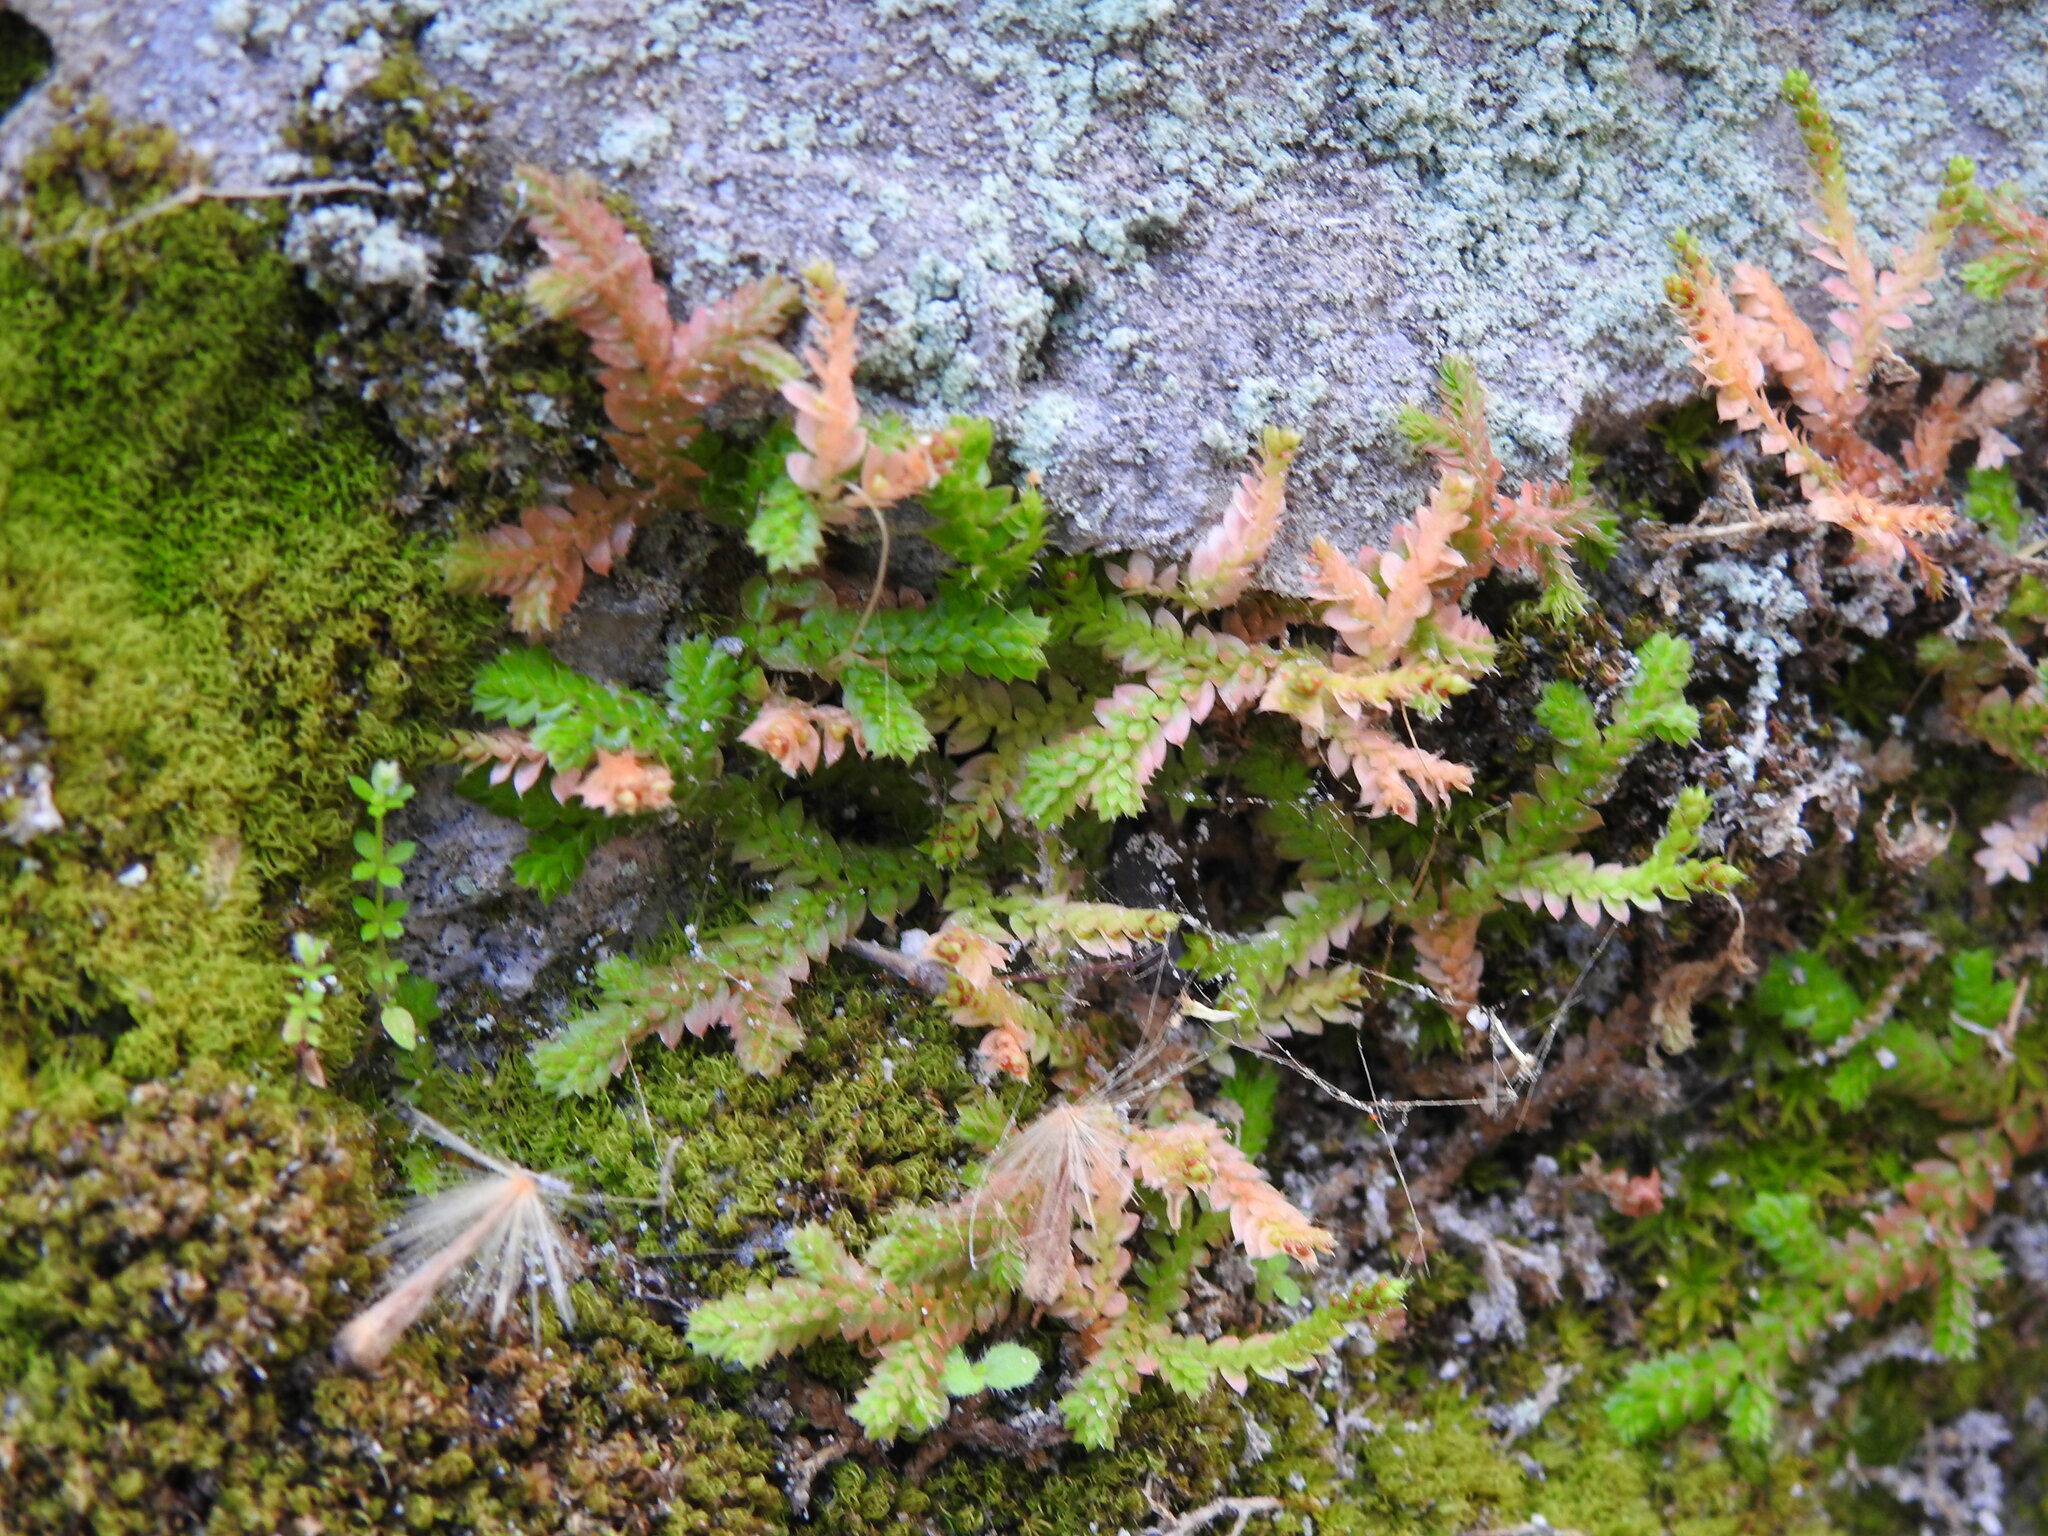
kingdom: Plantae
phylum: Tracheophyta
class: Lycopodiopsida
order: Selaginellales
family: Selaginellaceae
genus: Selaginella
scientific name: Selaginella denticulata
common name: Toothed-leaved clubmoss
